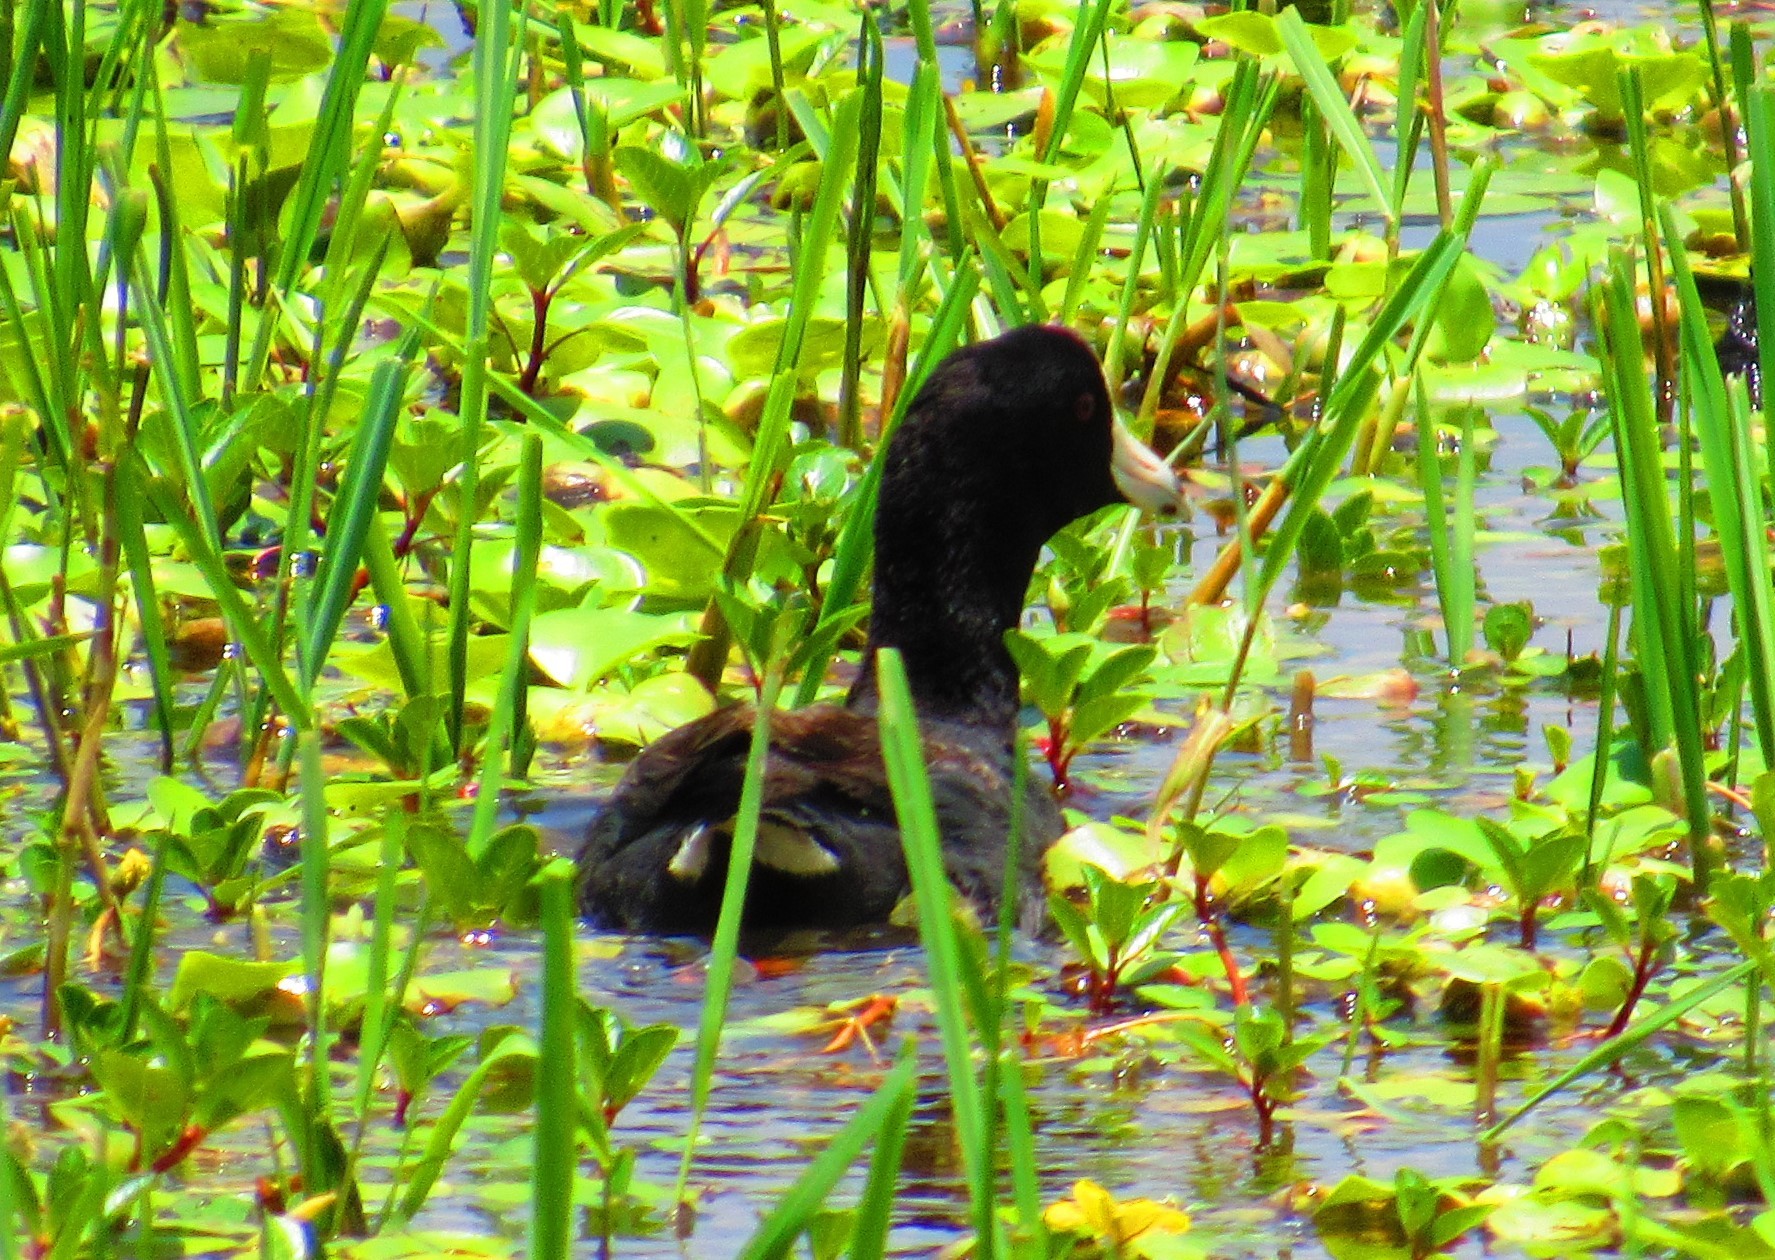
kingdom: Animalia
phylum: Chordata
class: Aves
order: Gruiformes
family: Rallidae
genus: Fulica
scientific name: Fulica americana
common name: American coot
